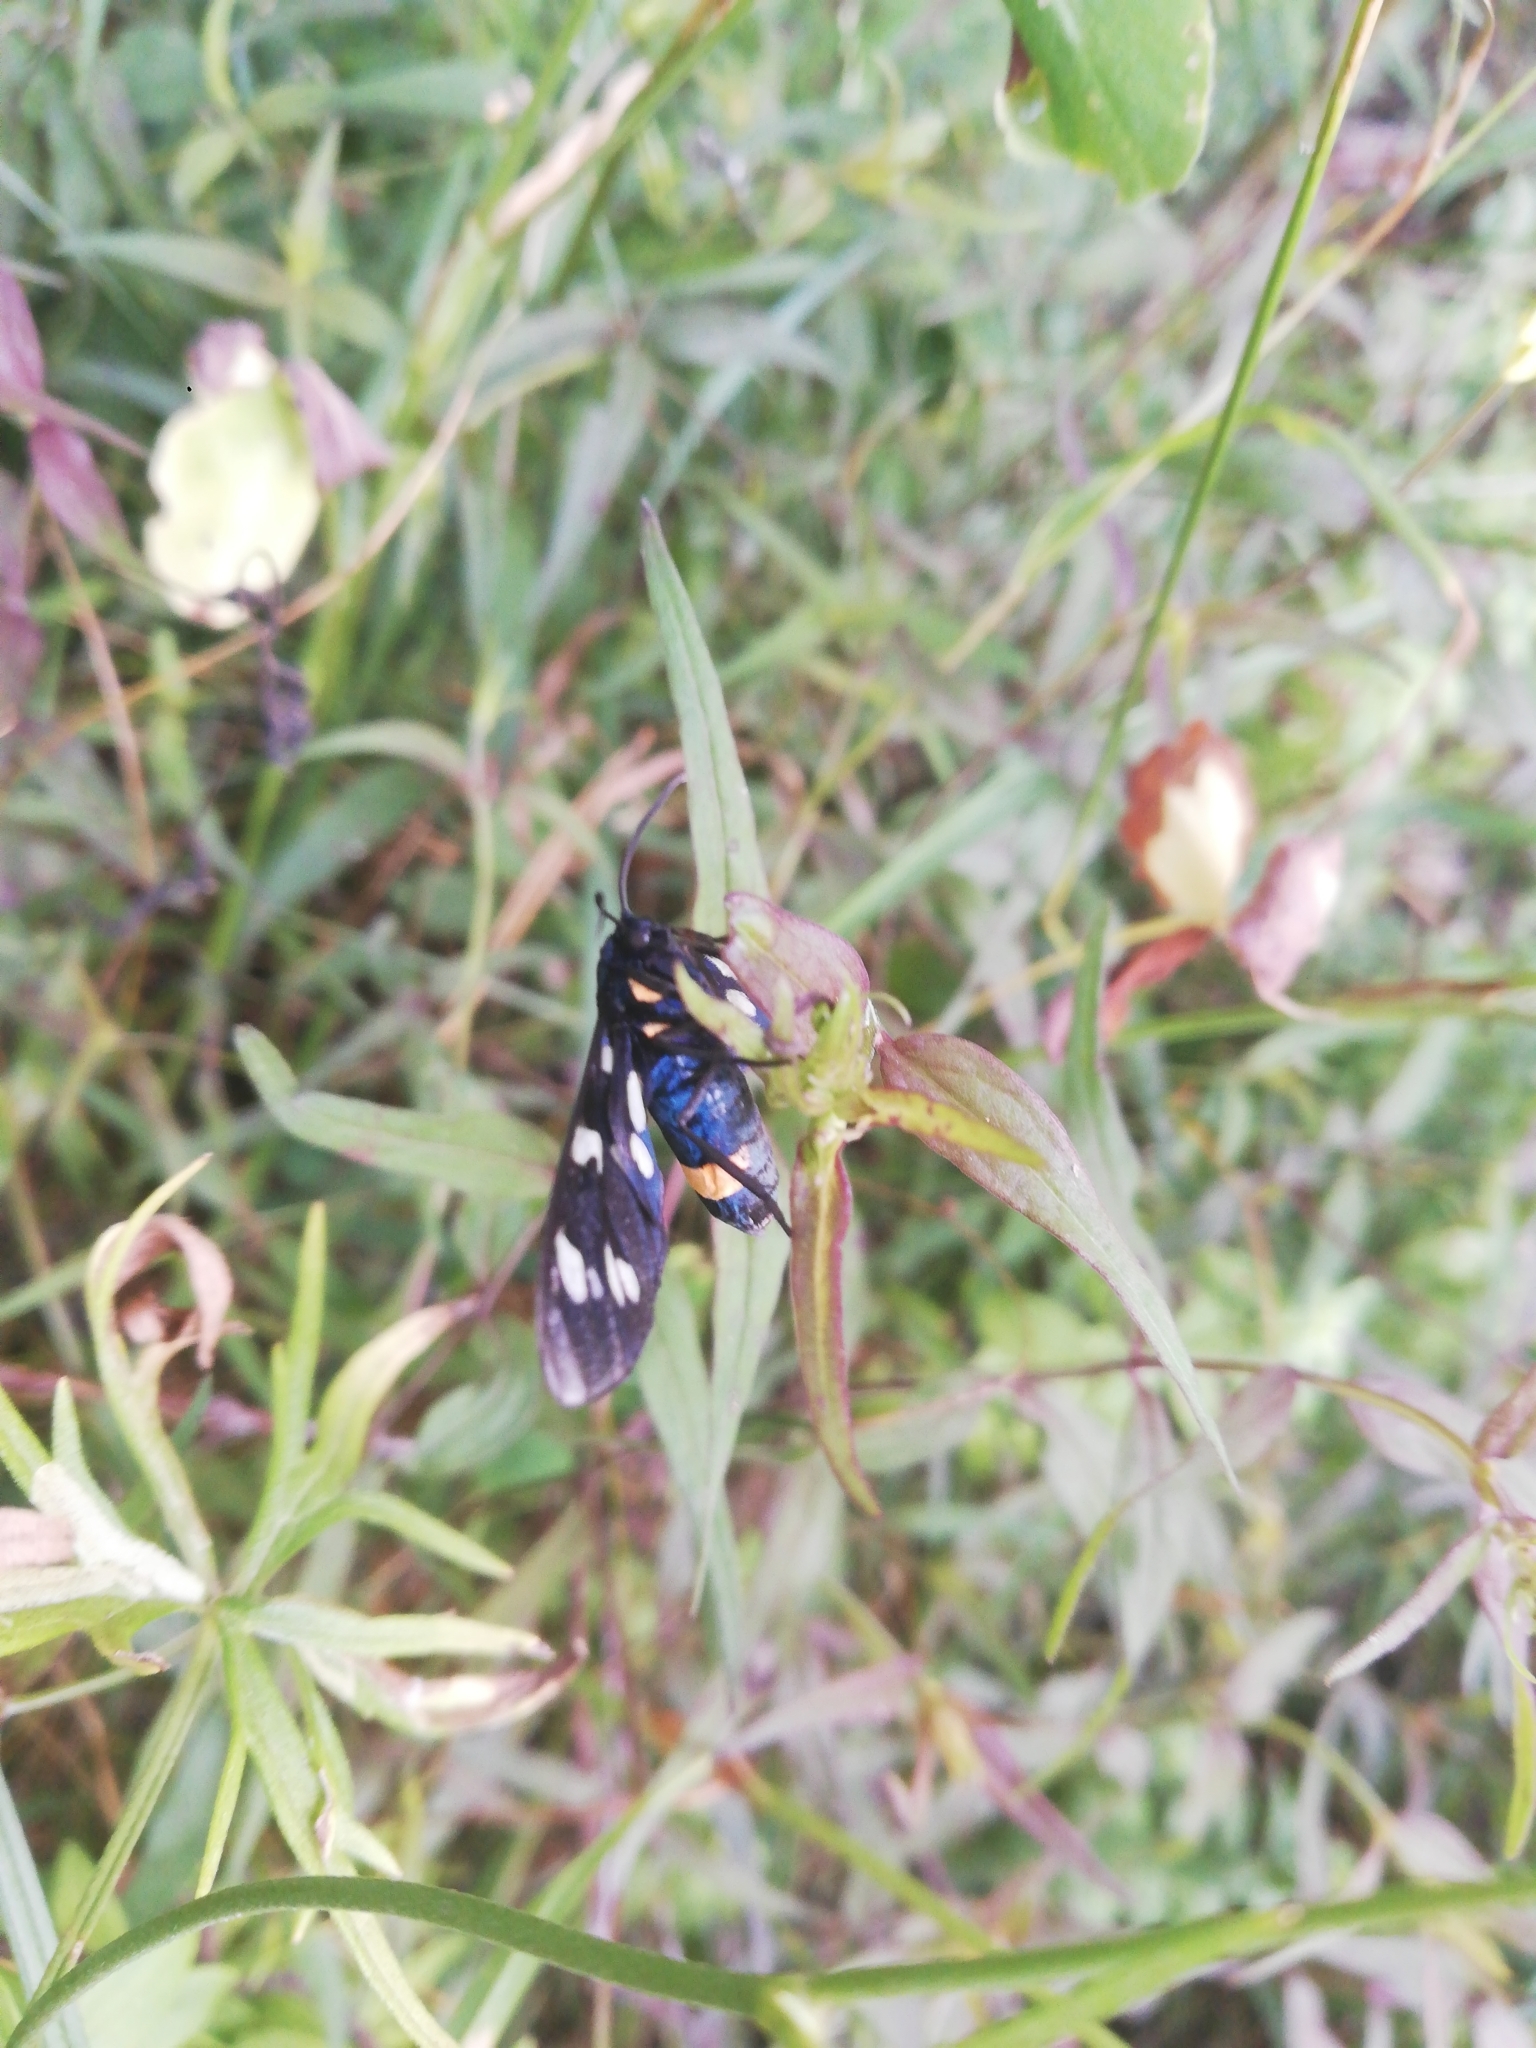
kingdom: Animalia
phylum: Arthropoda
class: Insecta
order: Lepidoptera
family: Erebidae
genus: Amata
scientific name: Amata phegea
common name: Nine-spotted
